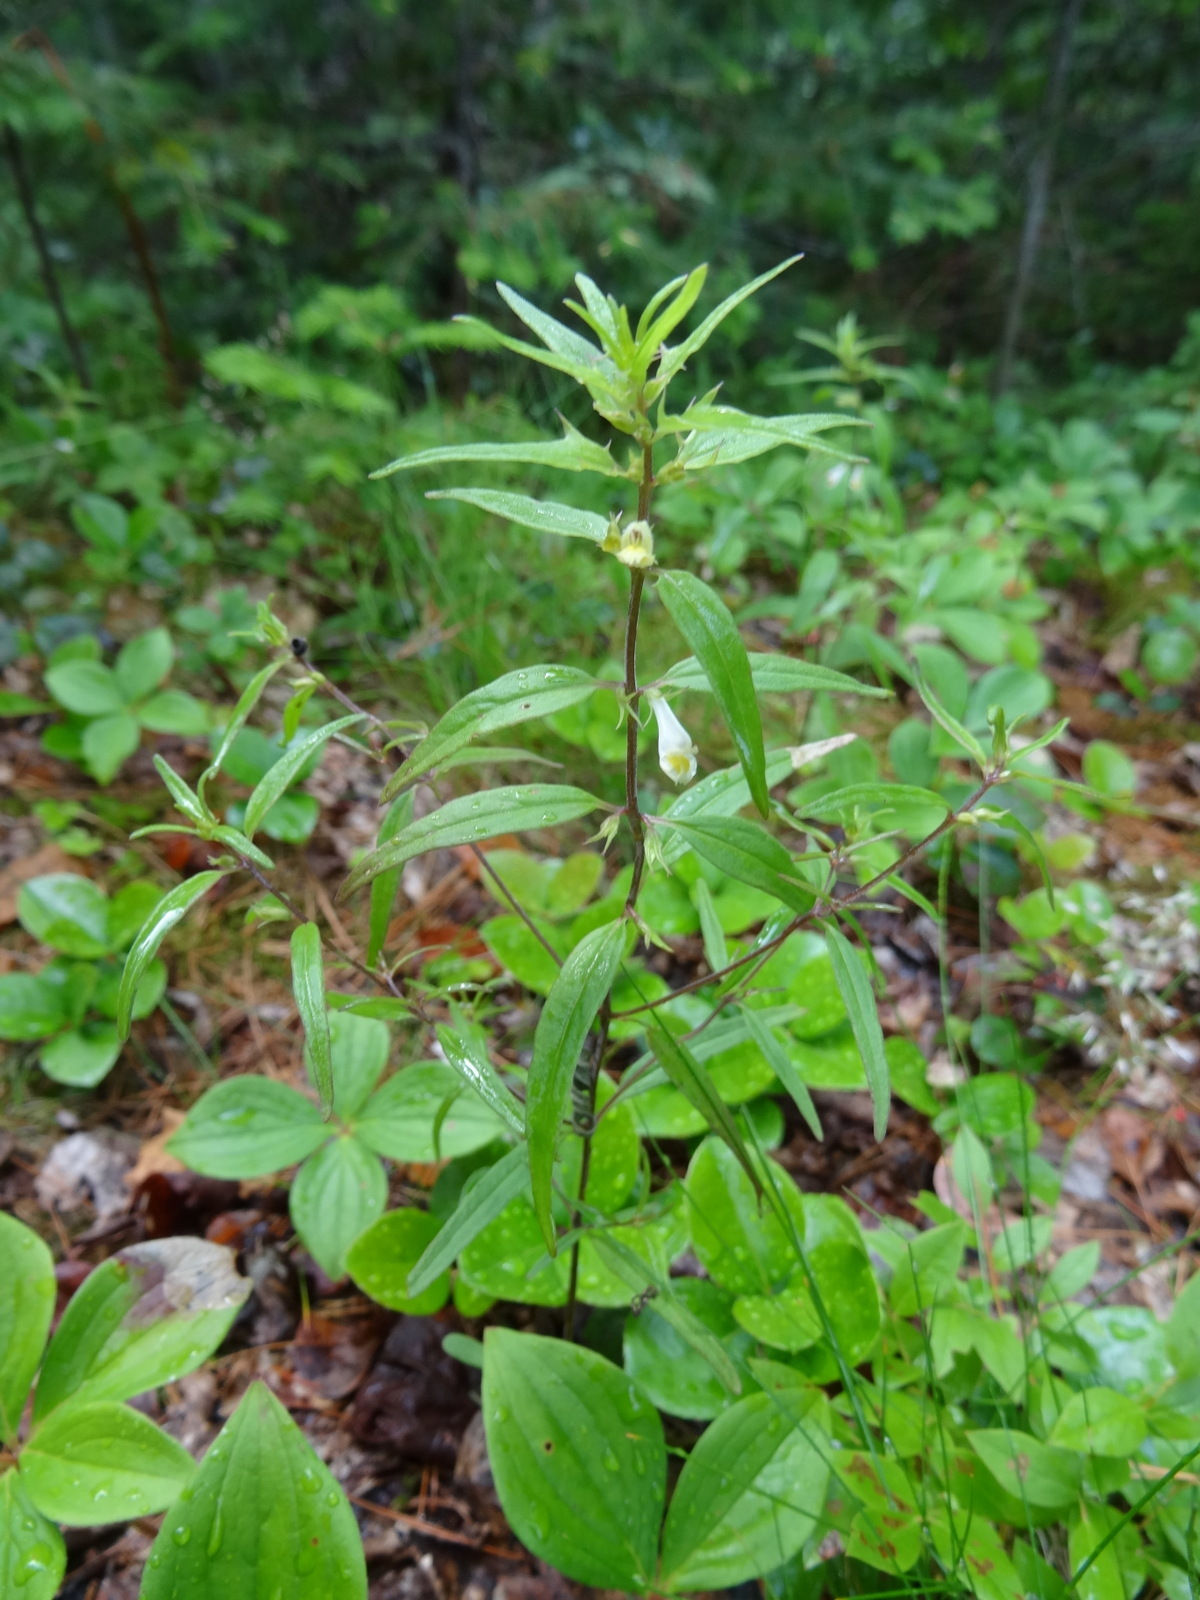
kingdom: Plantae
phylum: Tracheophyta
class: Magnoliopsida
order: Lamiales
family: Orobanchaceae
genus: Melampyrum
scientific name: Melampyrum lineare
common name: American cow-wheat
